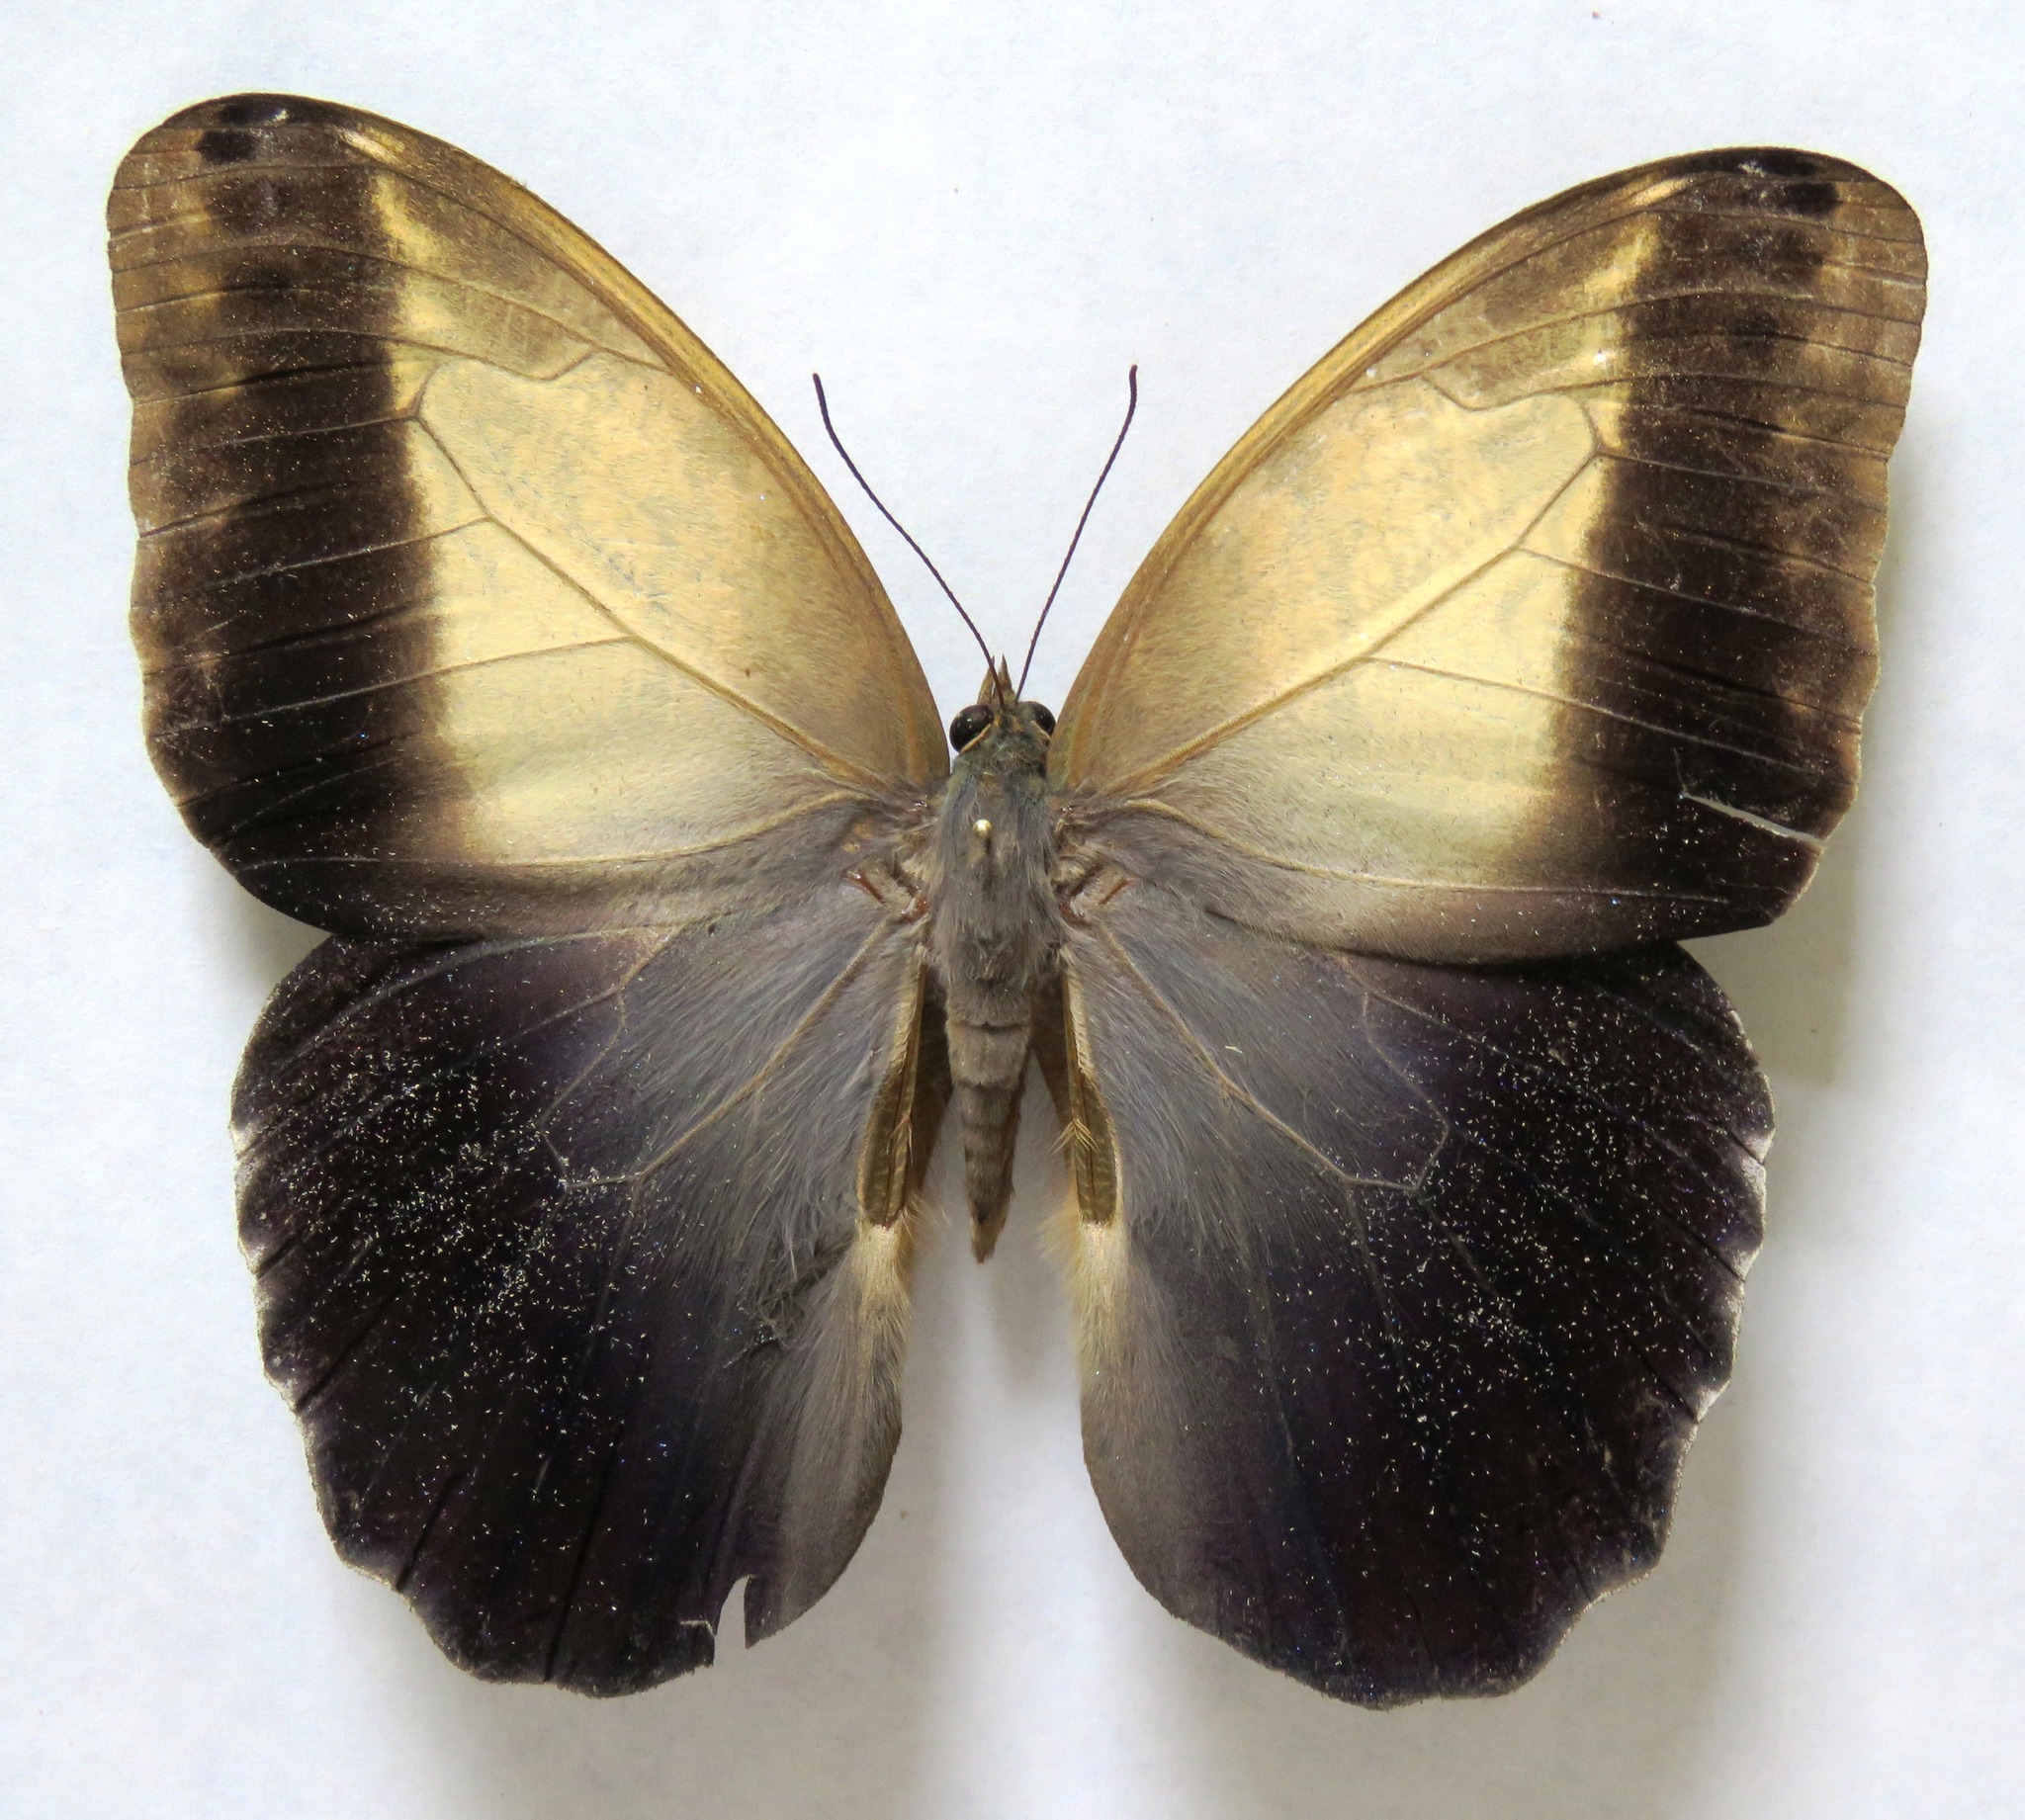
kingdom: Animalia
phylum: Arthropoda
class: Insecta
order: Lepidoptera
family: Nymphalidae
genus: Caligo
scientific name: Caligo telamonius
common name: Pale owl-butterfly
